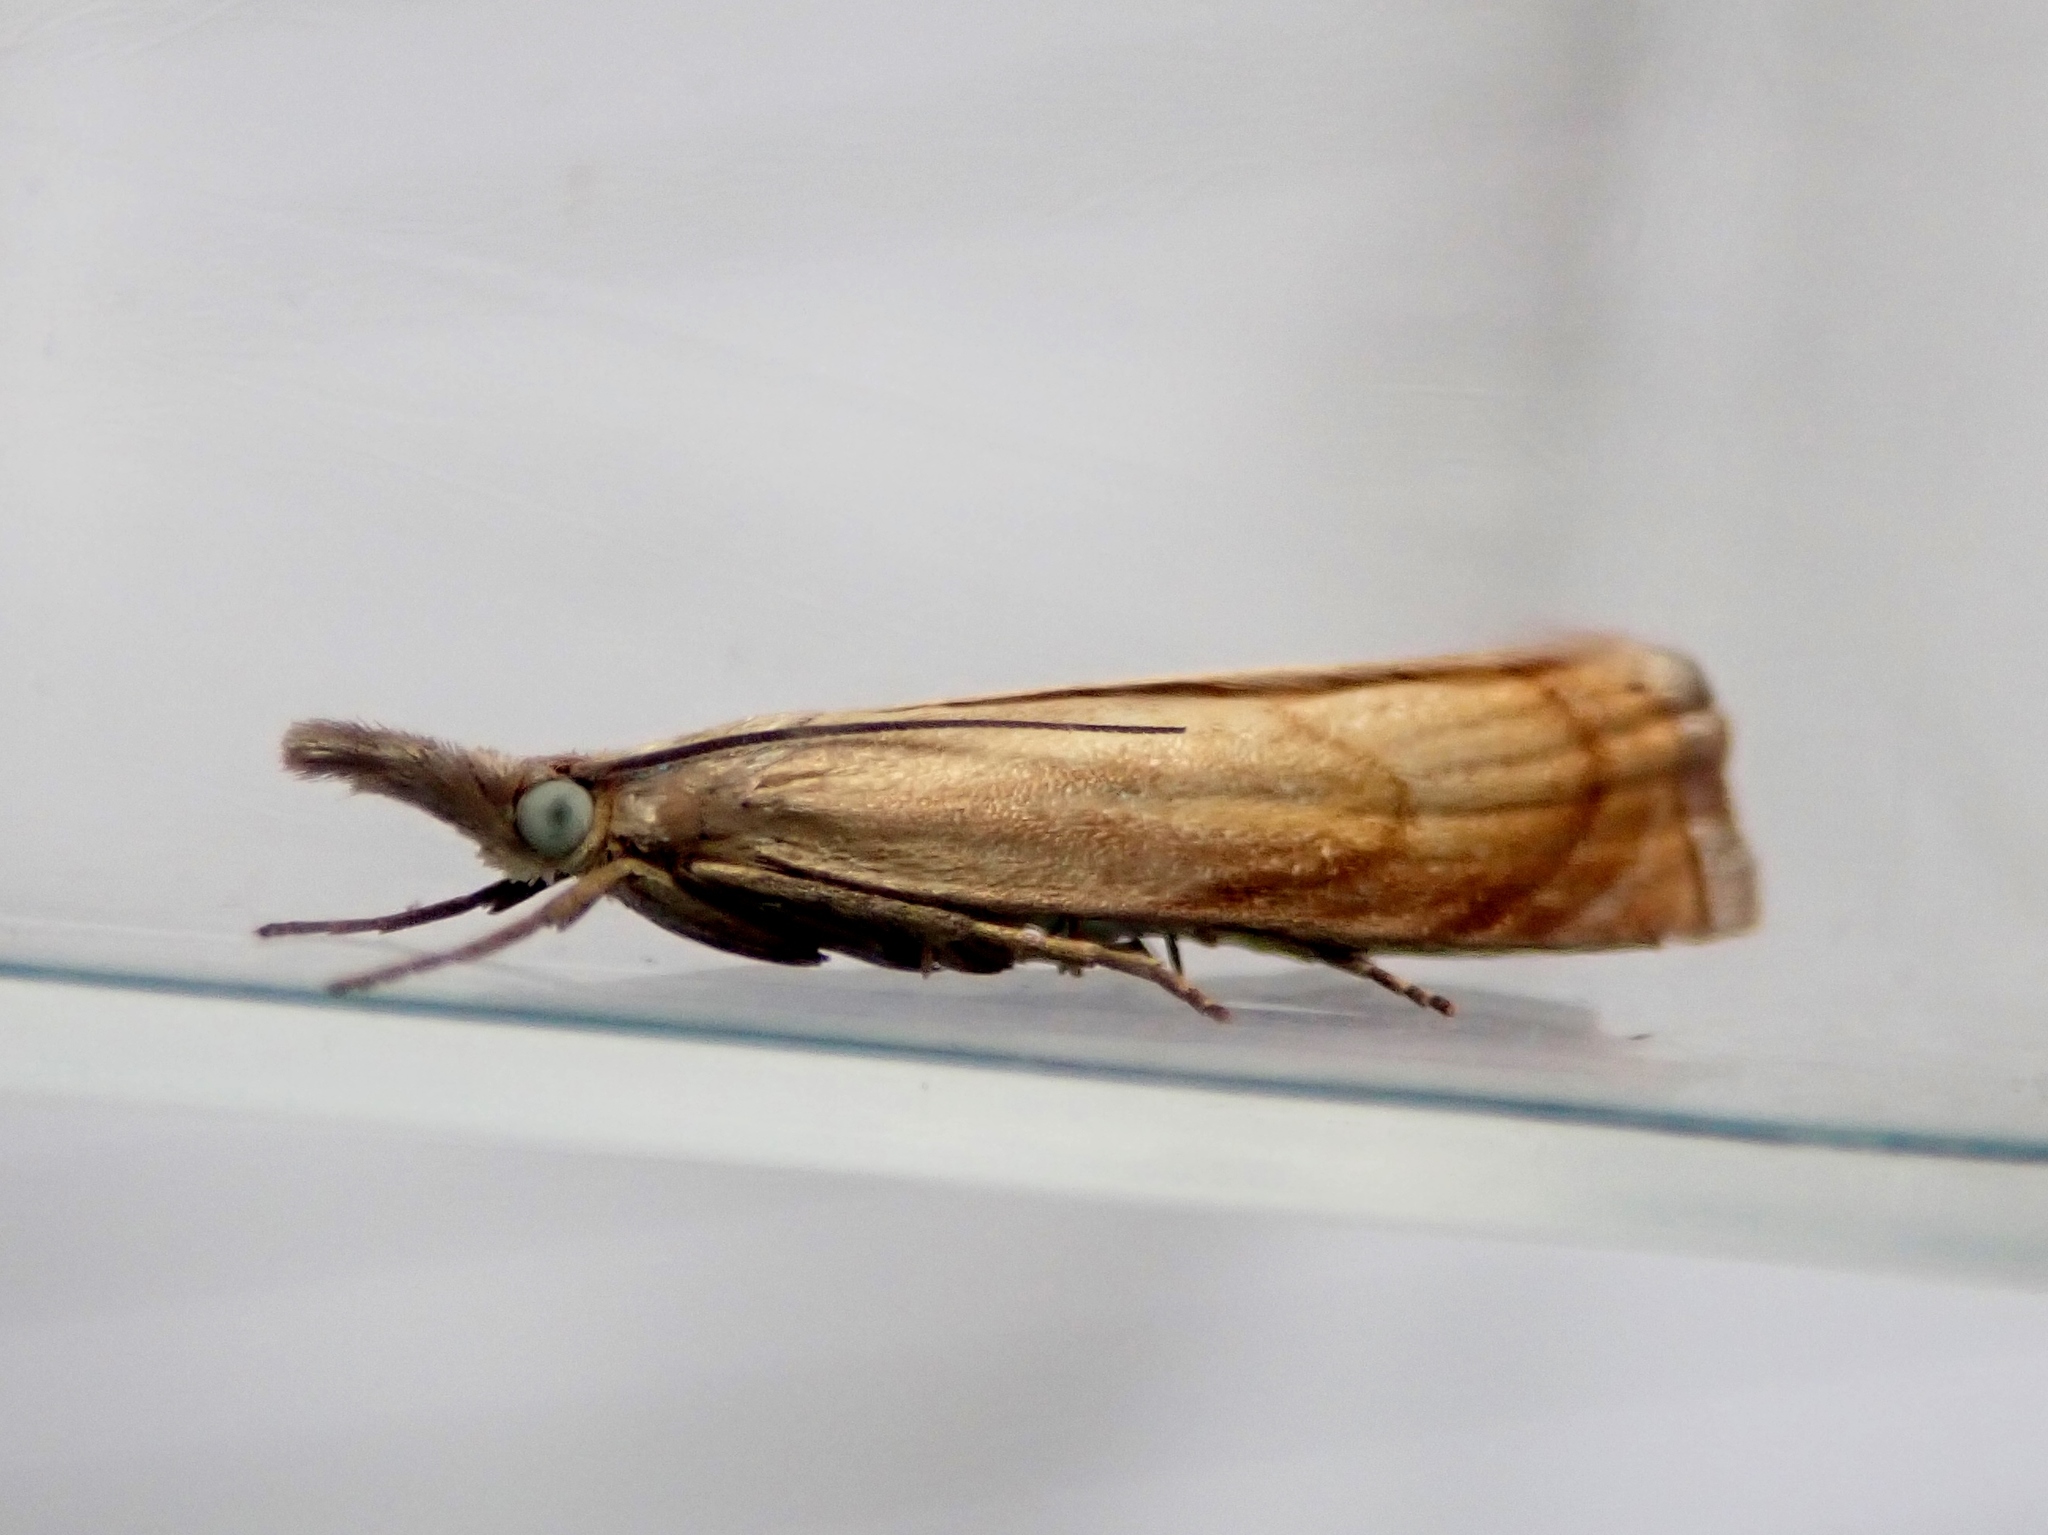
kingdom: Animalia
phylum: Arthropoda
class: Insecta
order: Lepidoptera
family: Crambidae
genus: Chrysoteuchia
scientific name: Chrysoteuchia culmella
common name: Garden grass-veneer
